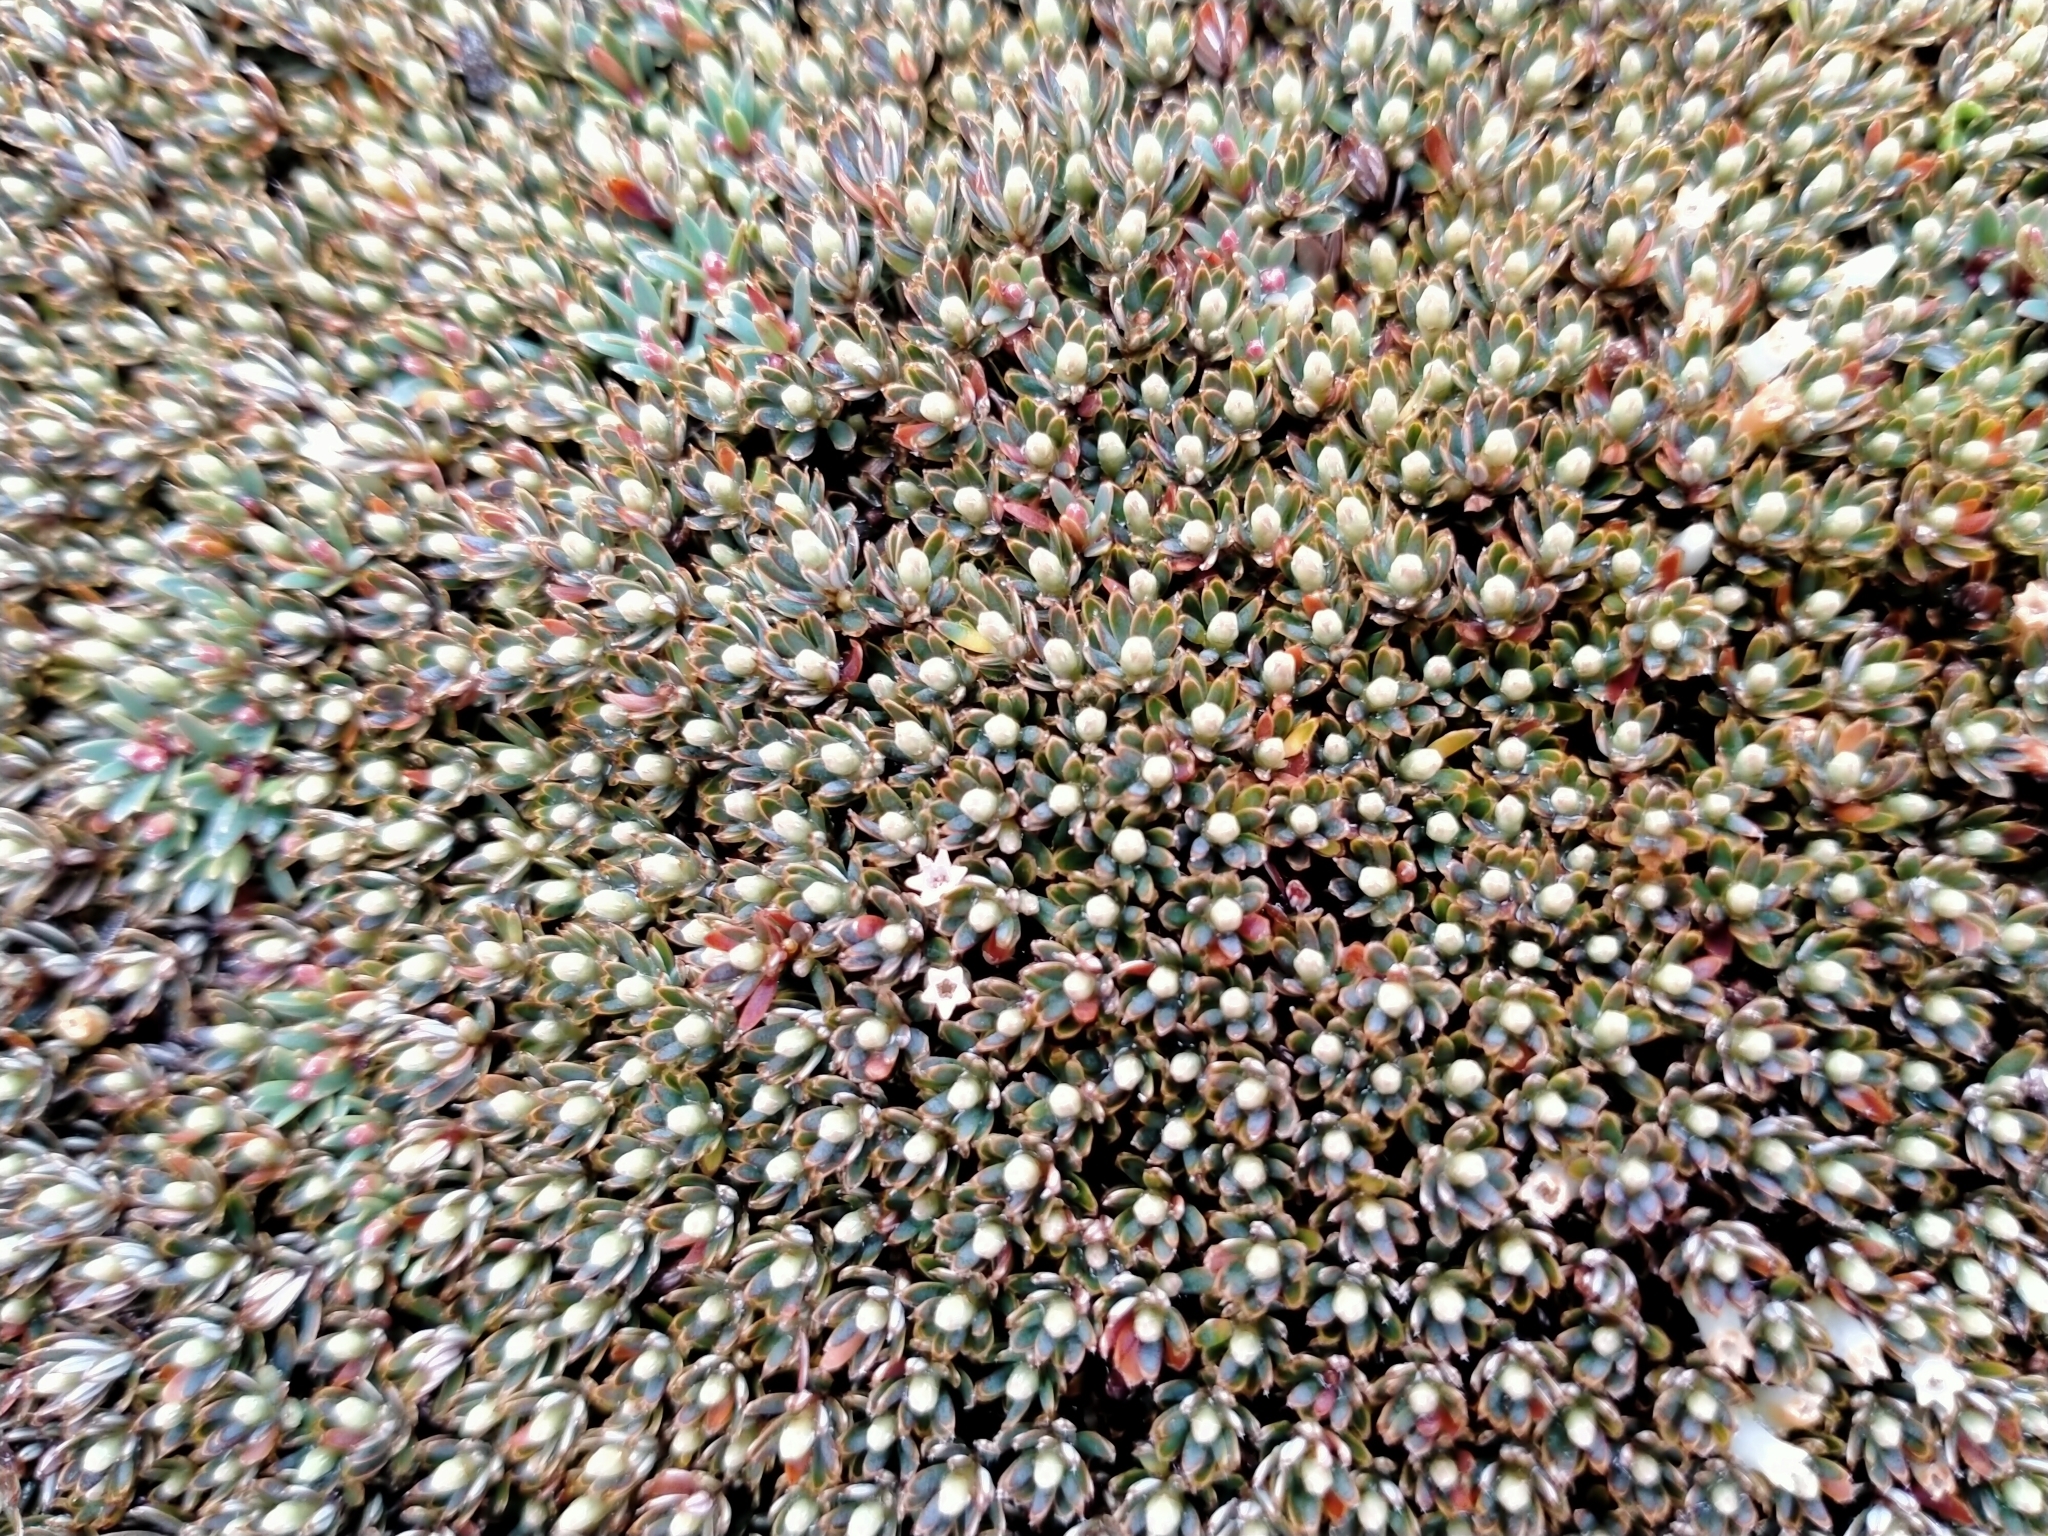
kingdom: Plantae
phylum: Tracheophyta
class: Magnoliopsida
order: Ericales
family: Ericaceae
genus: Montitega
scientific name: Montitega dealbata
